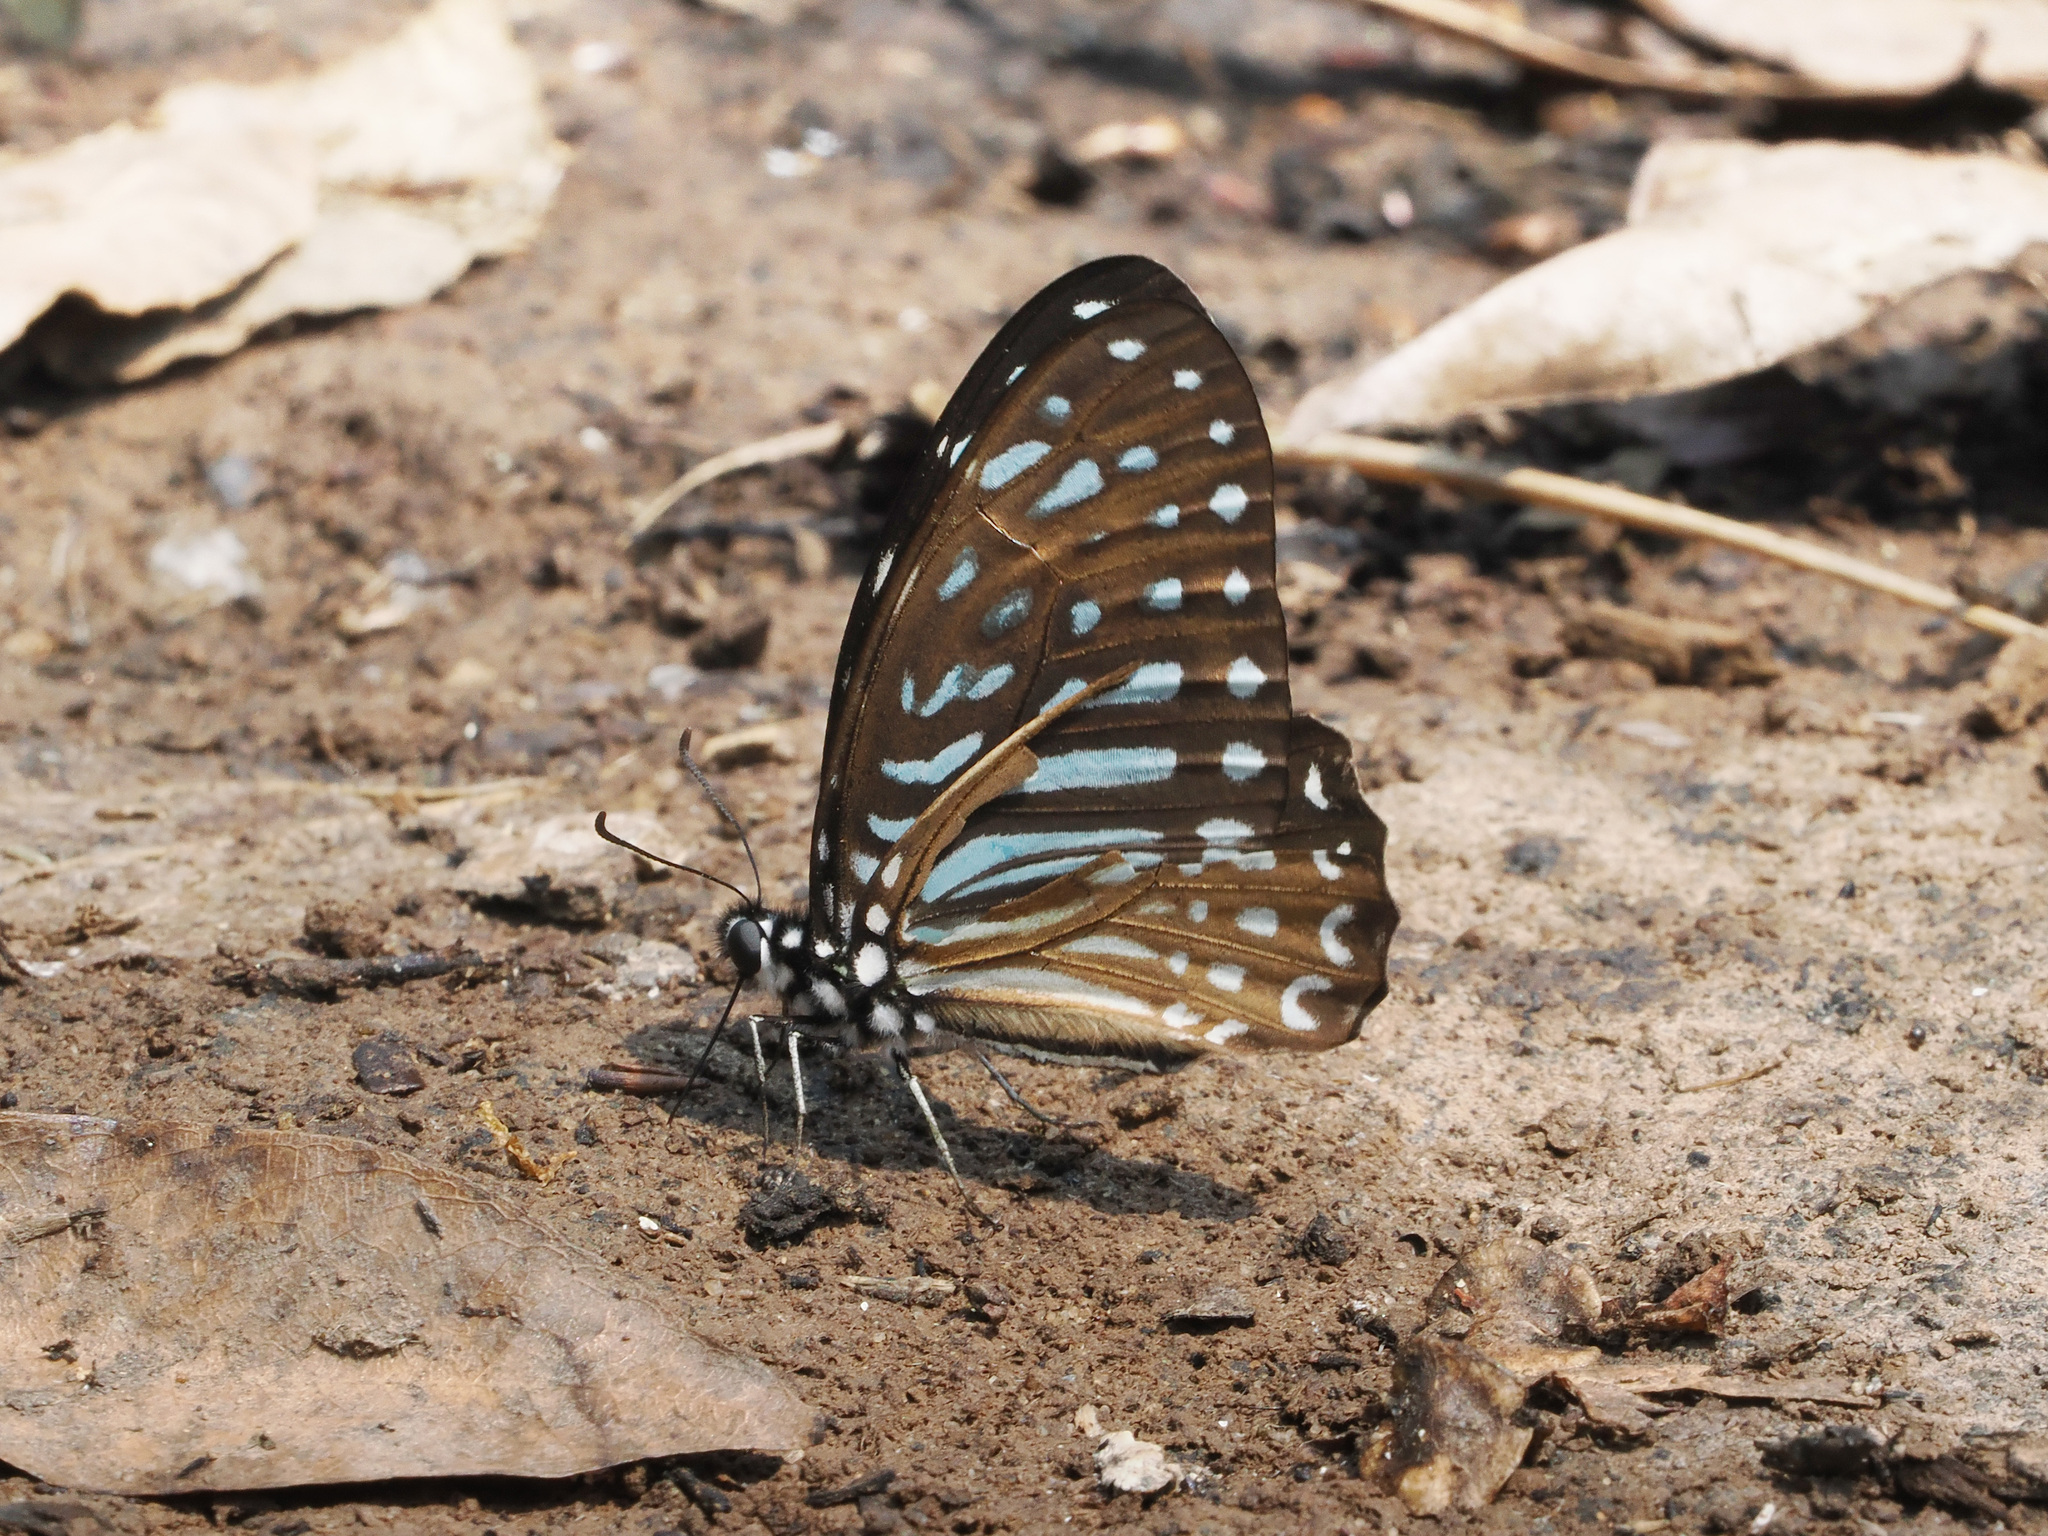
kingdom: Animalia
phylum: Arthropoda
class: Insecta
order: Lepidoptera
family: Papilionidae
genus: Graphium
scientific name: Graphium megarus
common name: Spotted zebra
